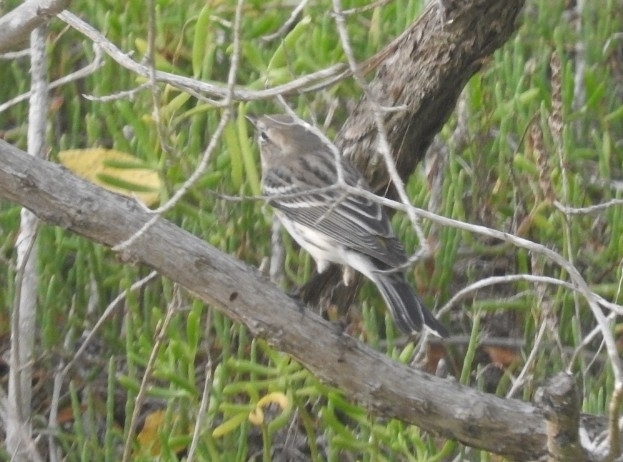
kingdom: Animalia
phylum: Chordata
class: Aves
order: Passeriformes
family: Parulidae
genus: Setophaga
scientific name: Setophaga coronata
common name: Myrtle warbler
